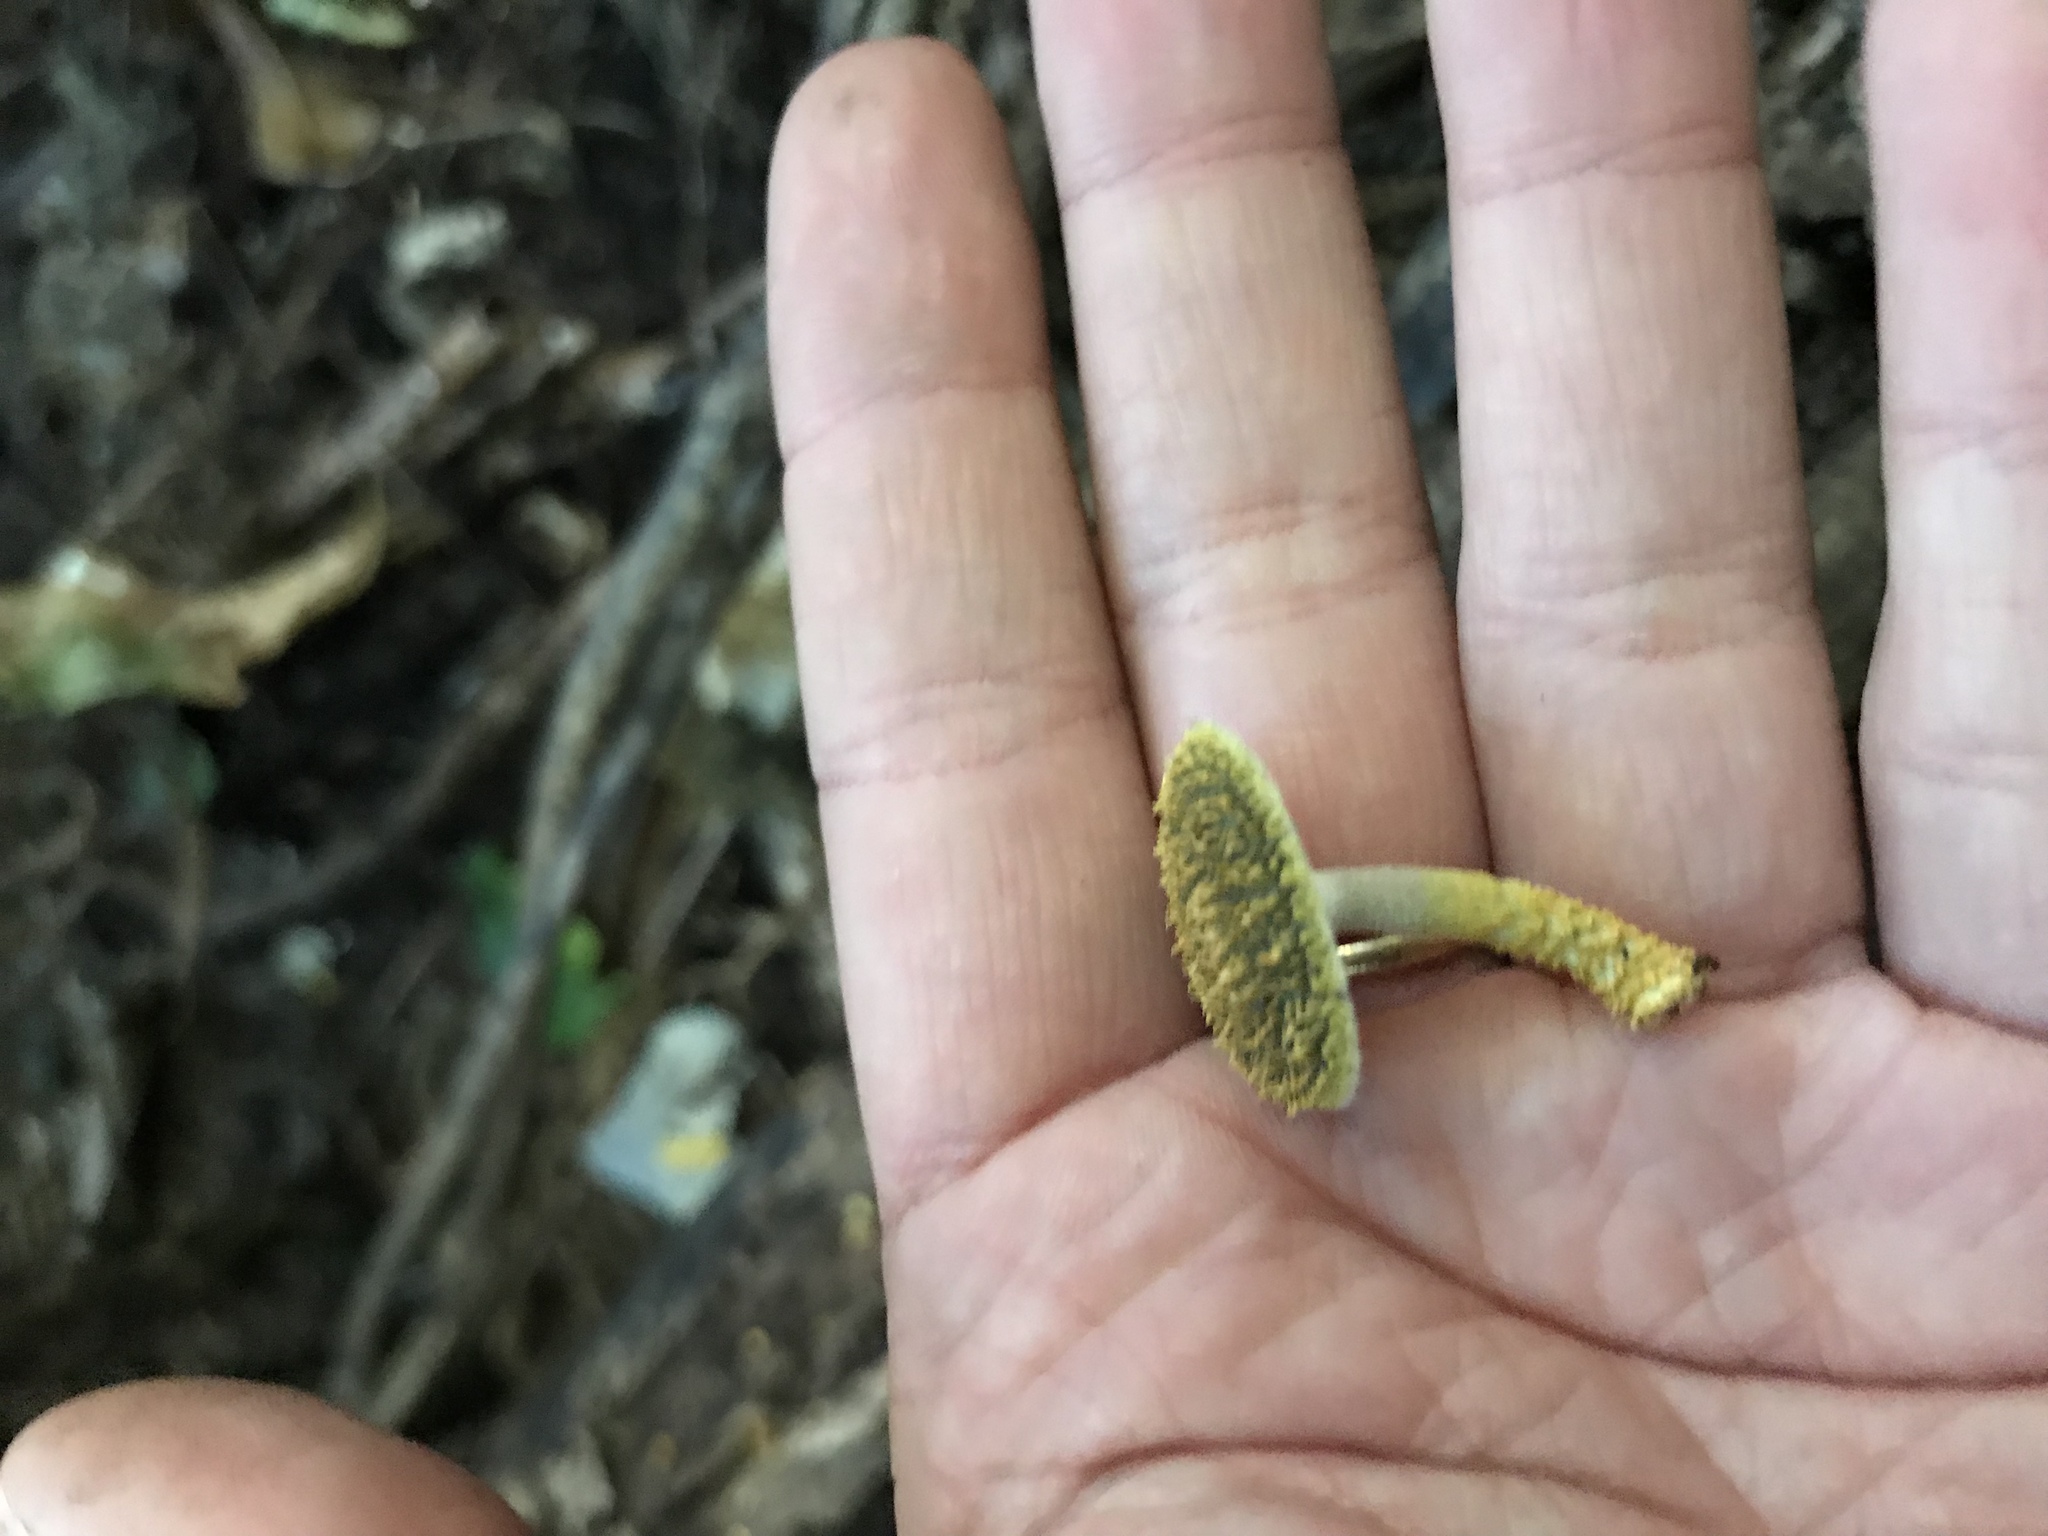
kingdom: Fungi
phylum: Basidiomycota
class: Agaricomycetes
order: Agaricales
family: Physalacriaceae
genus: Cyptotrama
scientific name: Cyptotrama
